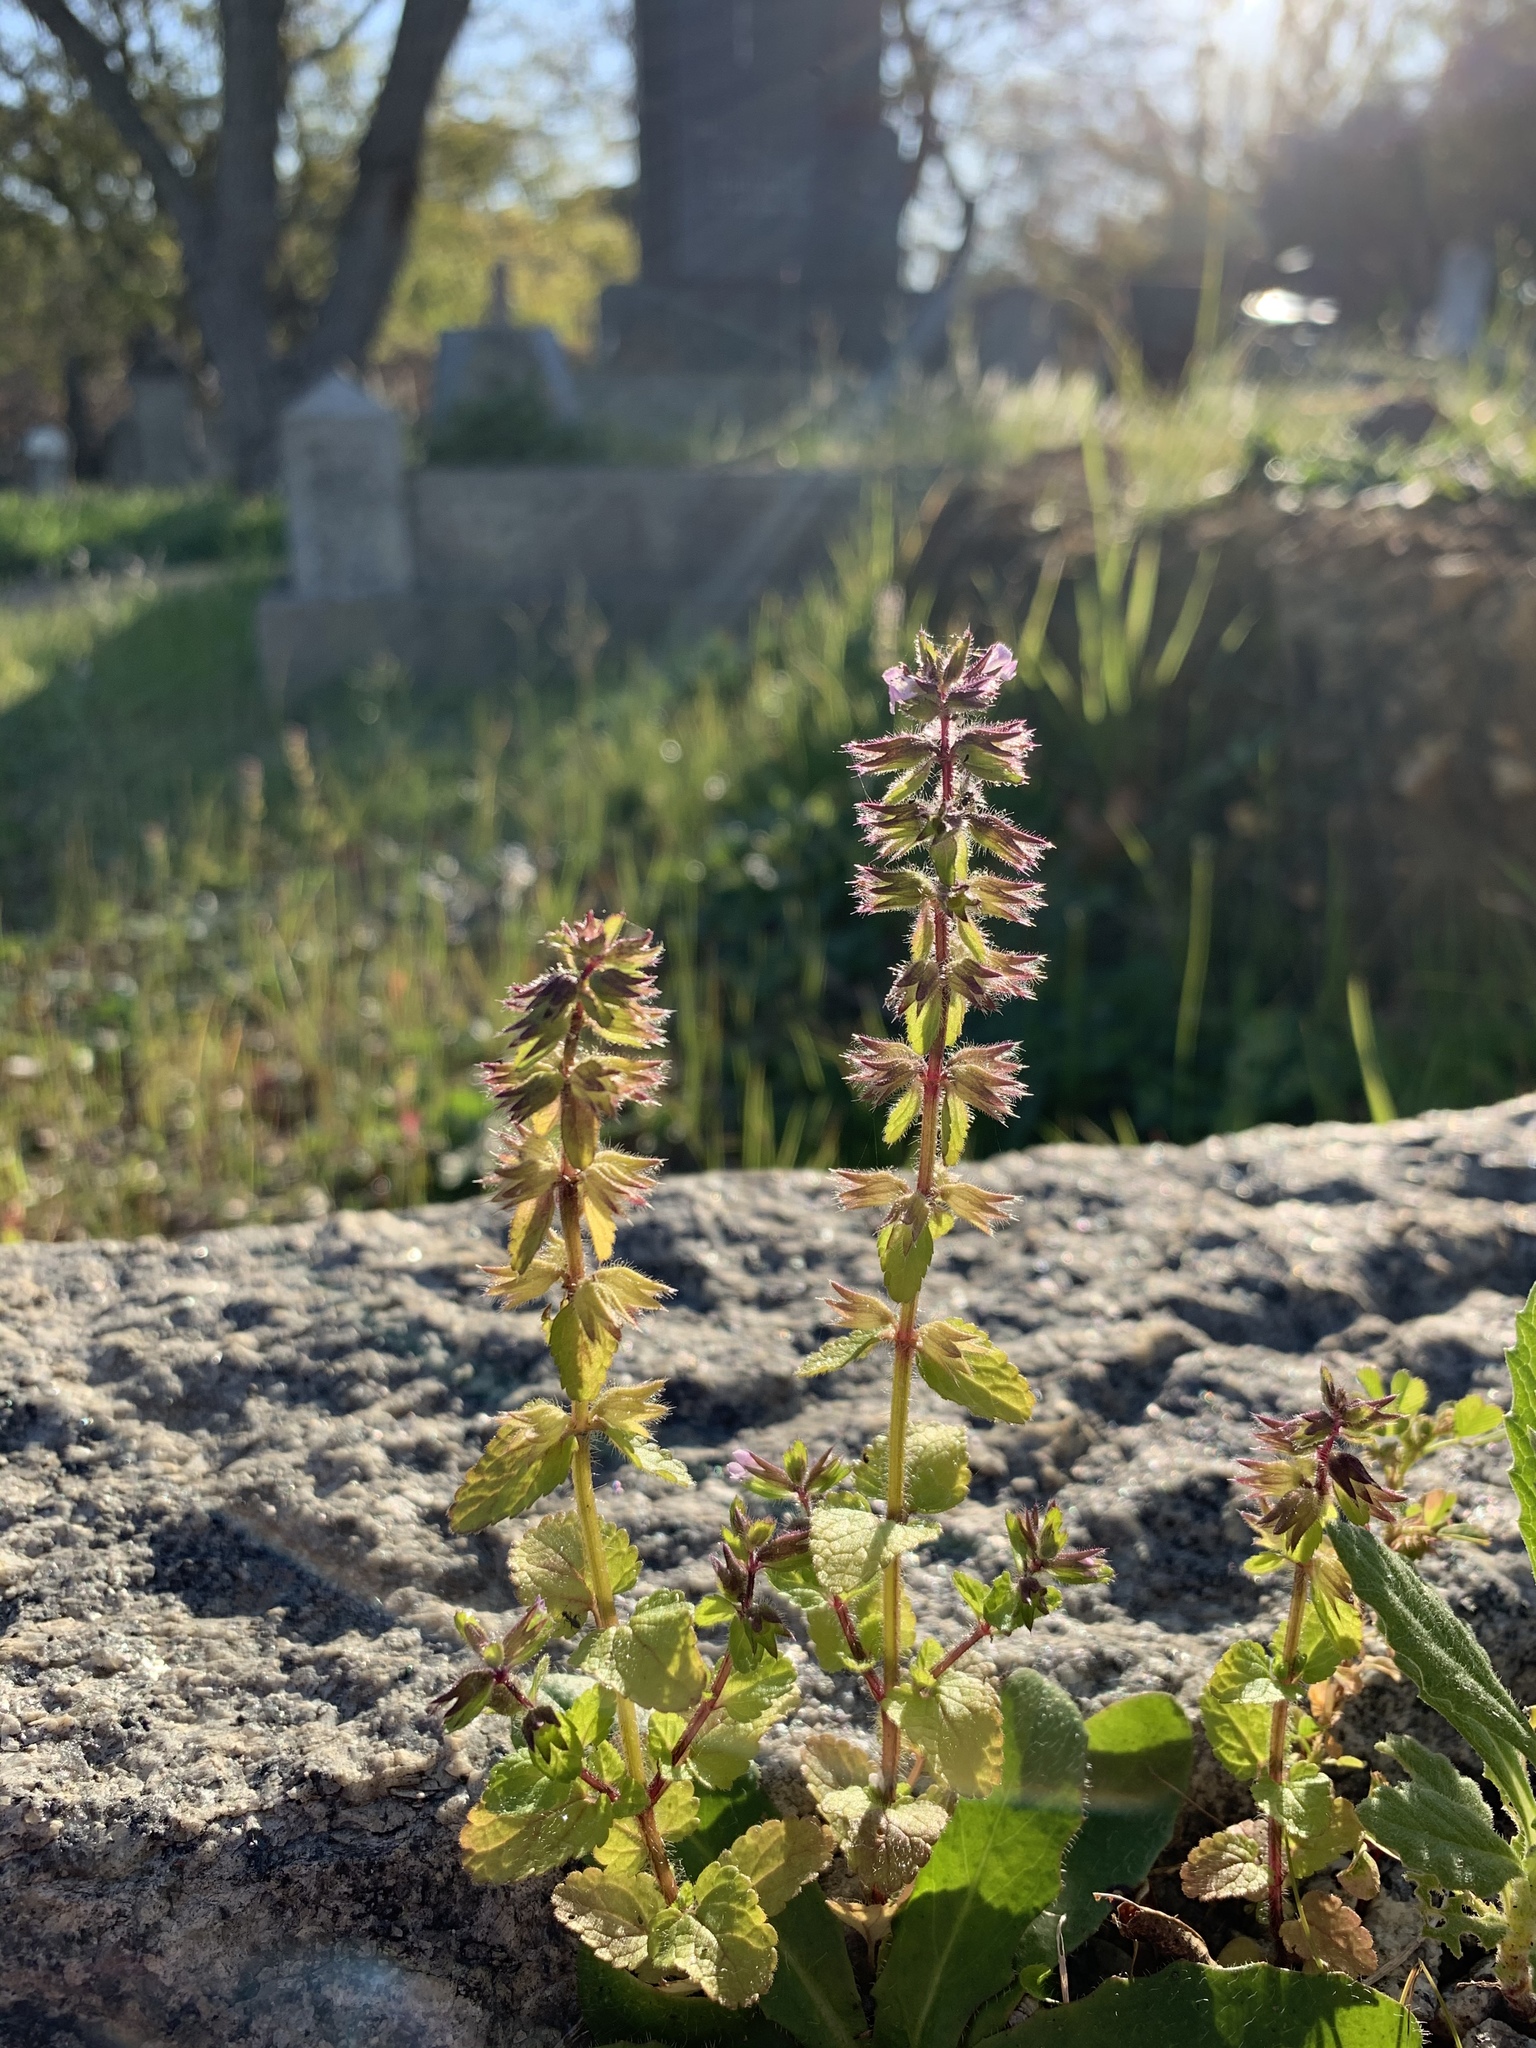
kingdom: Plantae
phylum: Tracheophyta
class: Magnoliopsida
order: Lamiales
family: Lamiaceae
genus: Stachys
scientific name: Stachys arvensis
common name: Field woundwort
